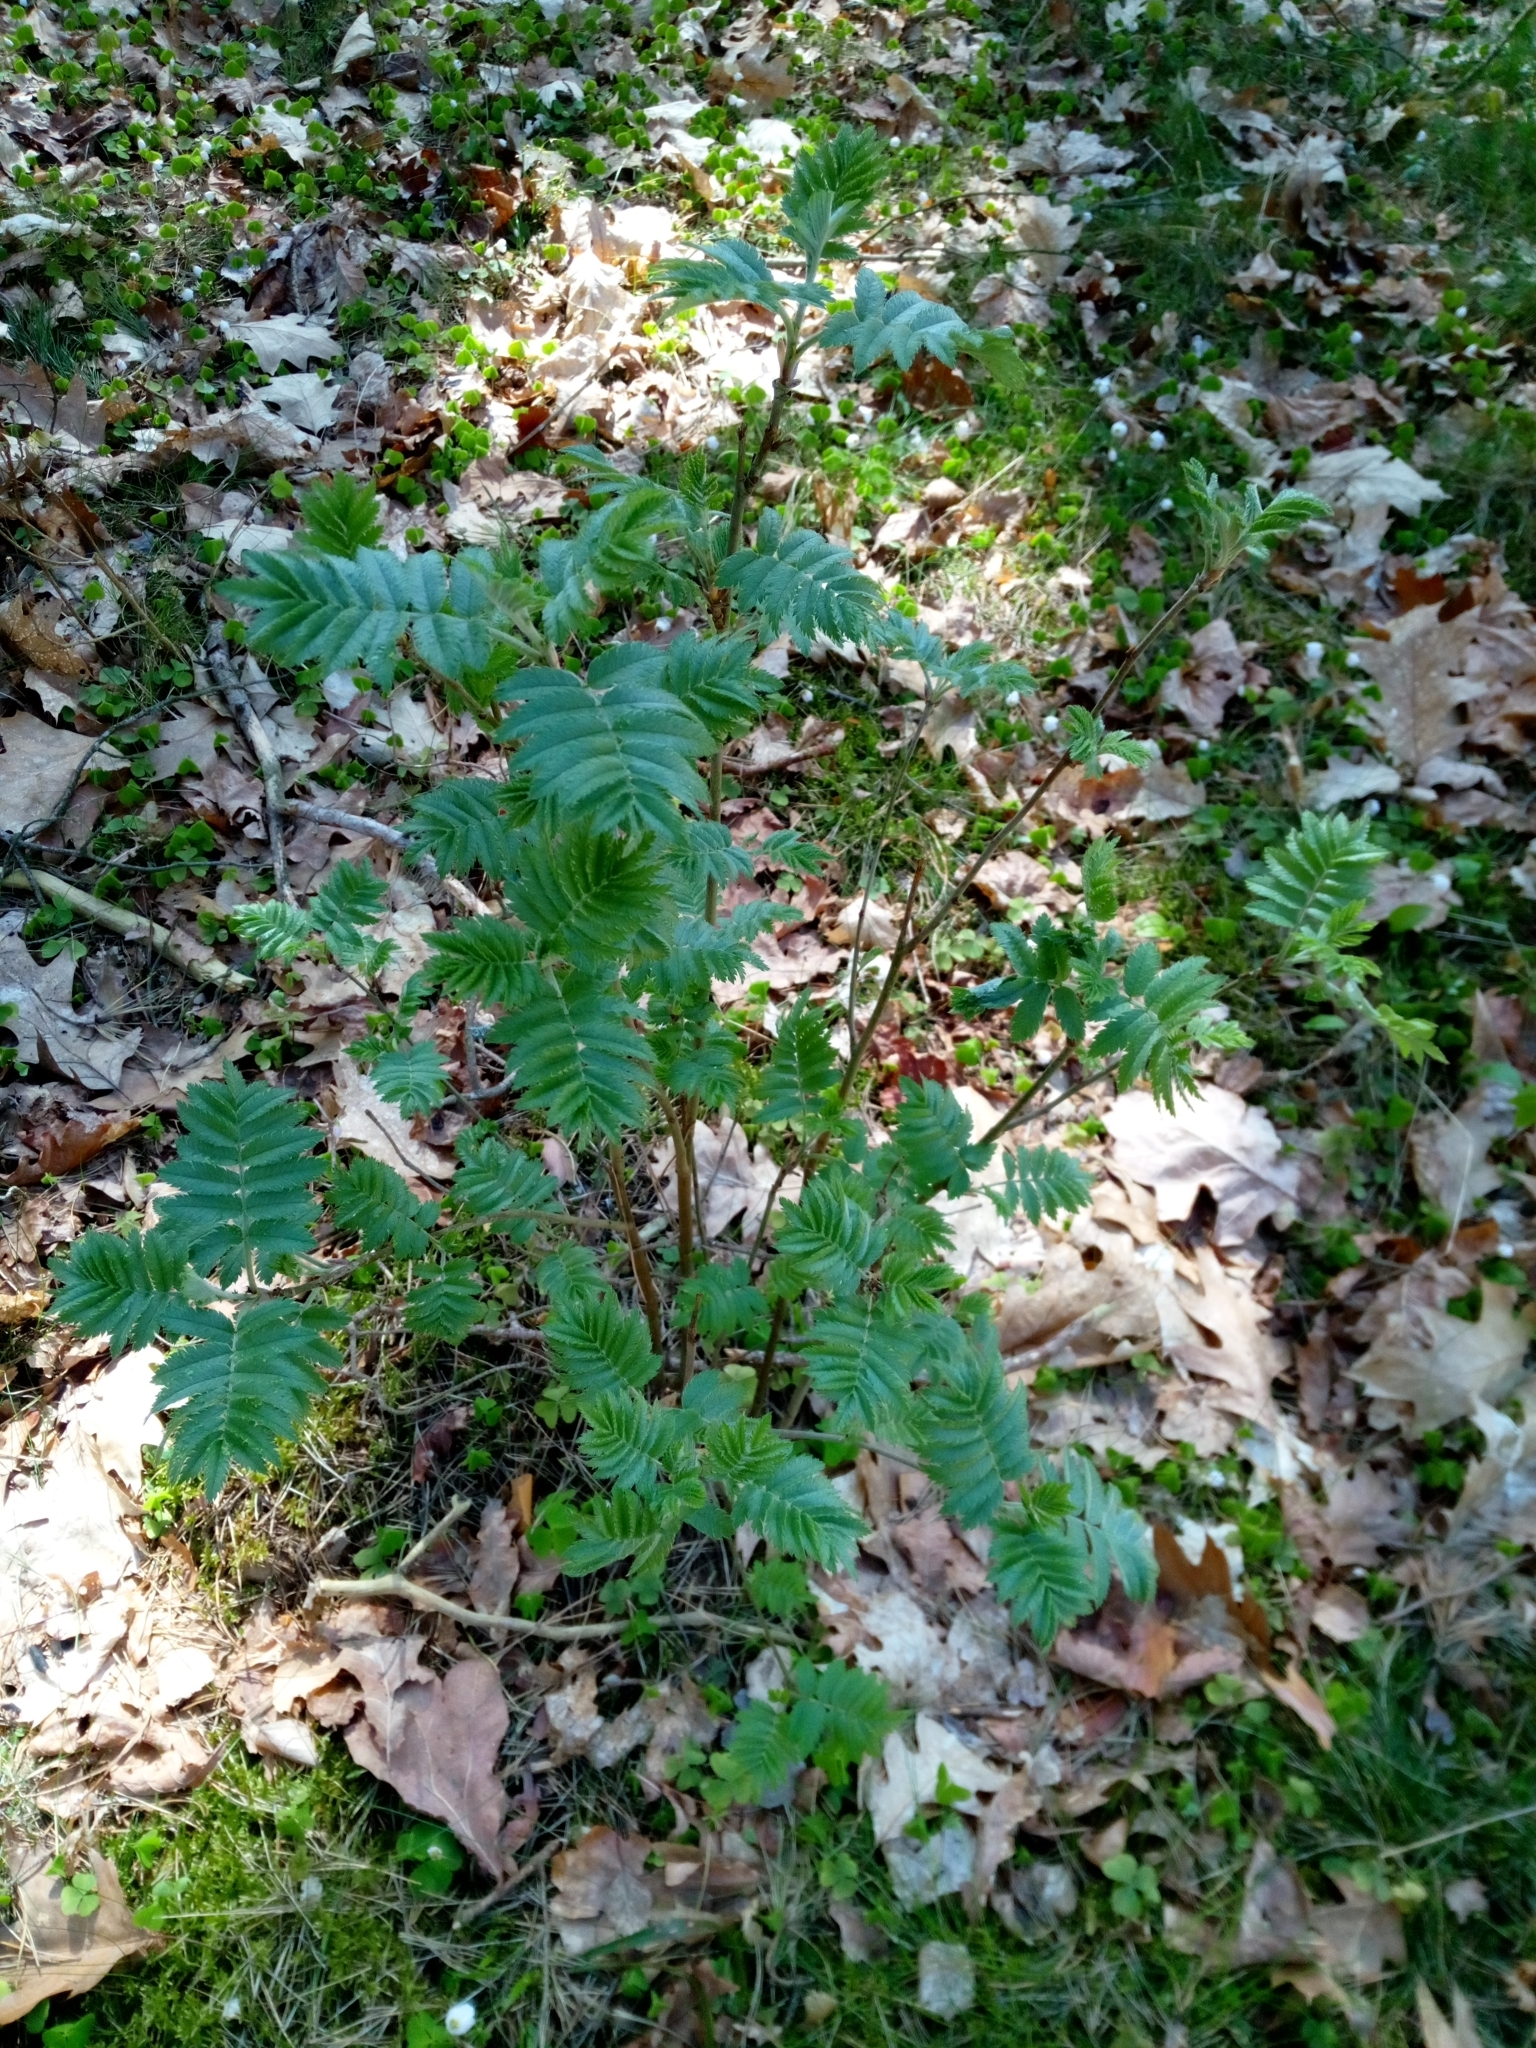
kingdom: Plantae
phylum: Tracheophyta
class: Magnoliopsida
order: Rosales
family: Rosaceae
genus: Sorbus
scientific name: Sorbus aucuparia
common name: Rowan
